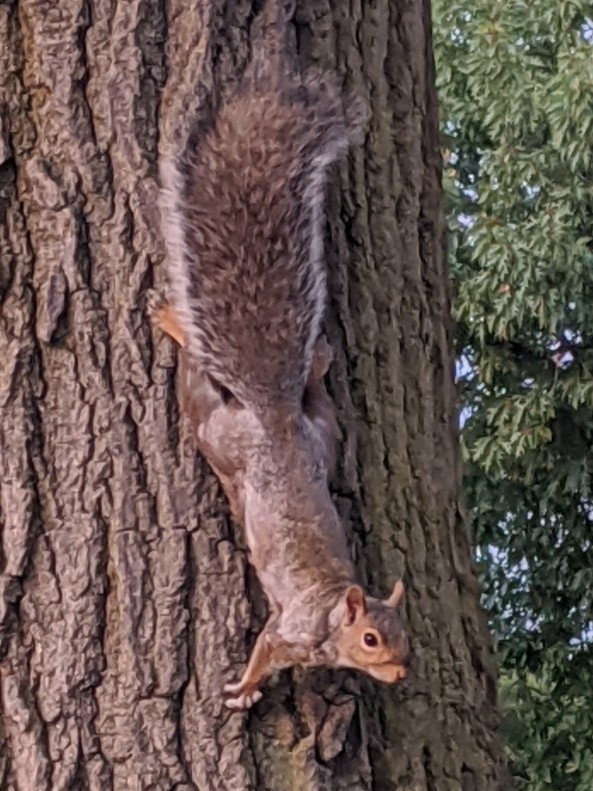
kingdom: Animalia
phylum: Chordata
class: Mammalia
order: Rodentia
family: Sciuridae
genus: Sciurus
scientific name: Sciurus carolinensis
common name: Eastern gray squirrel
